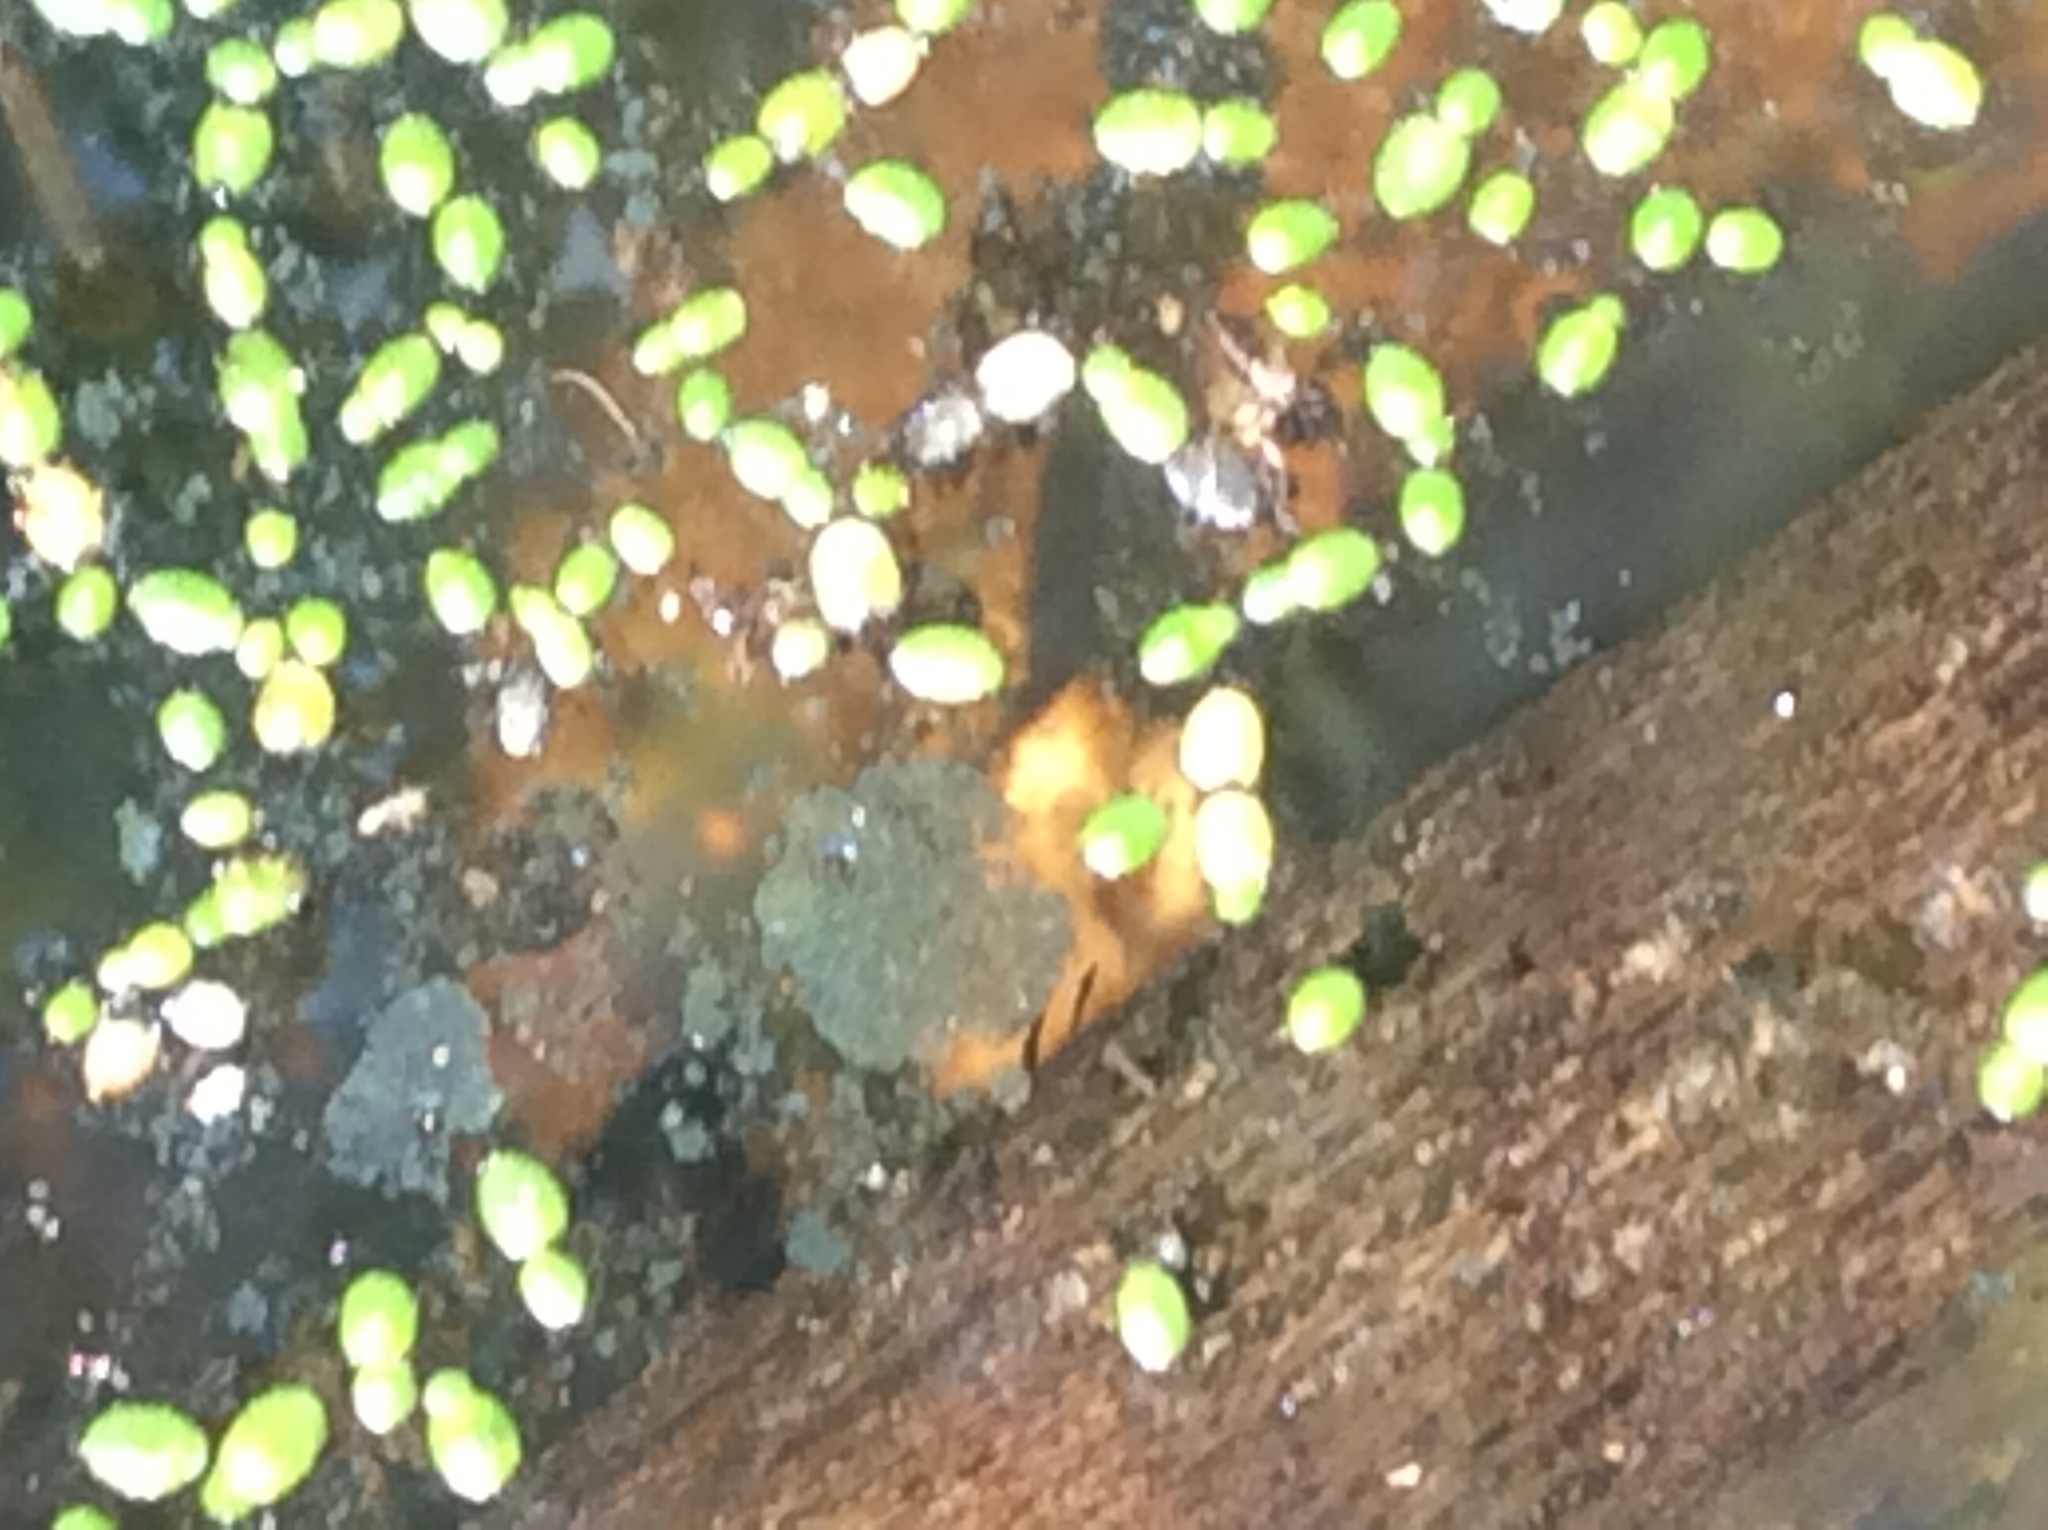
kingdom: Plantae
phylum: Tracheophyta
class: Liliopsida
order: Alismatales
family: Araceae
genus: Lemna
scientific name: Lemna minor
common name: Common duckweed
